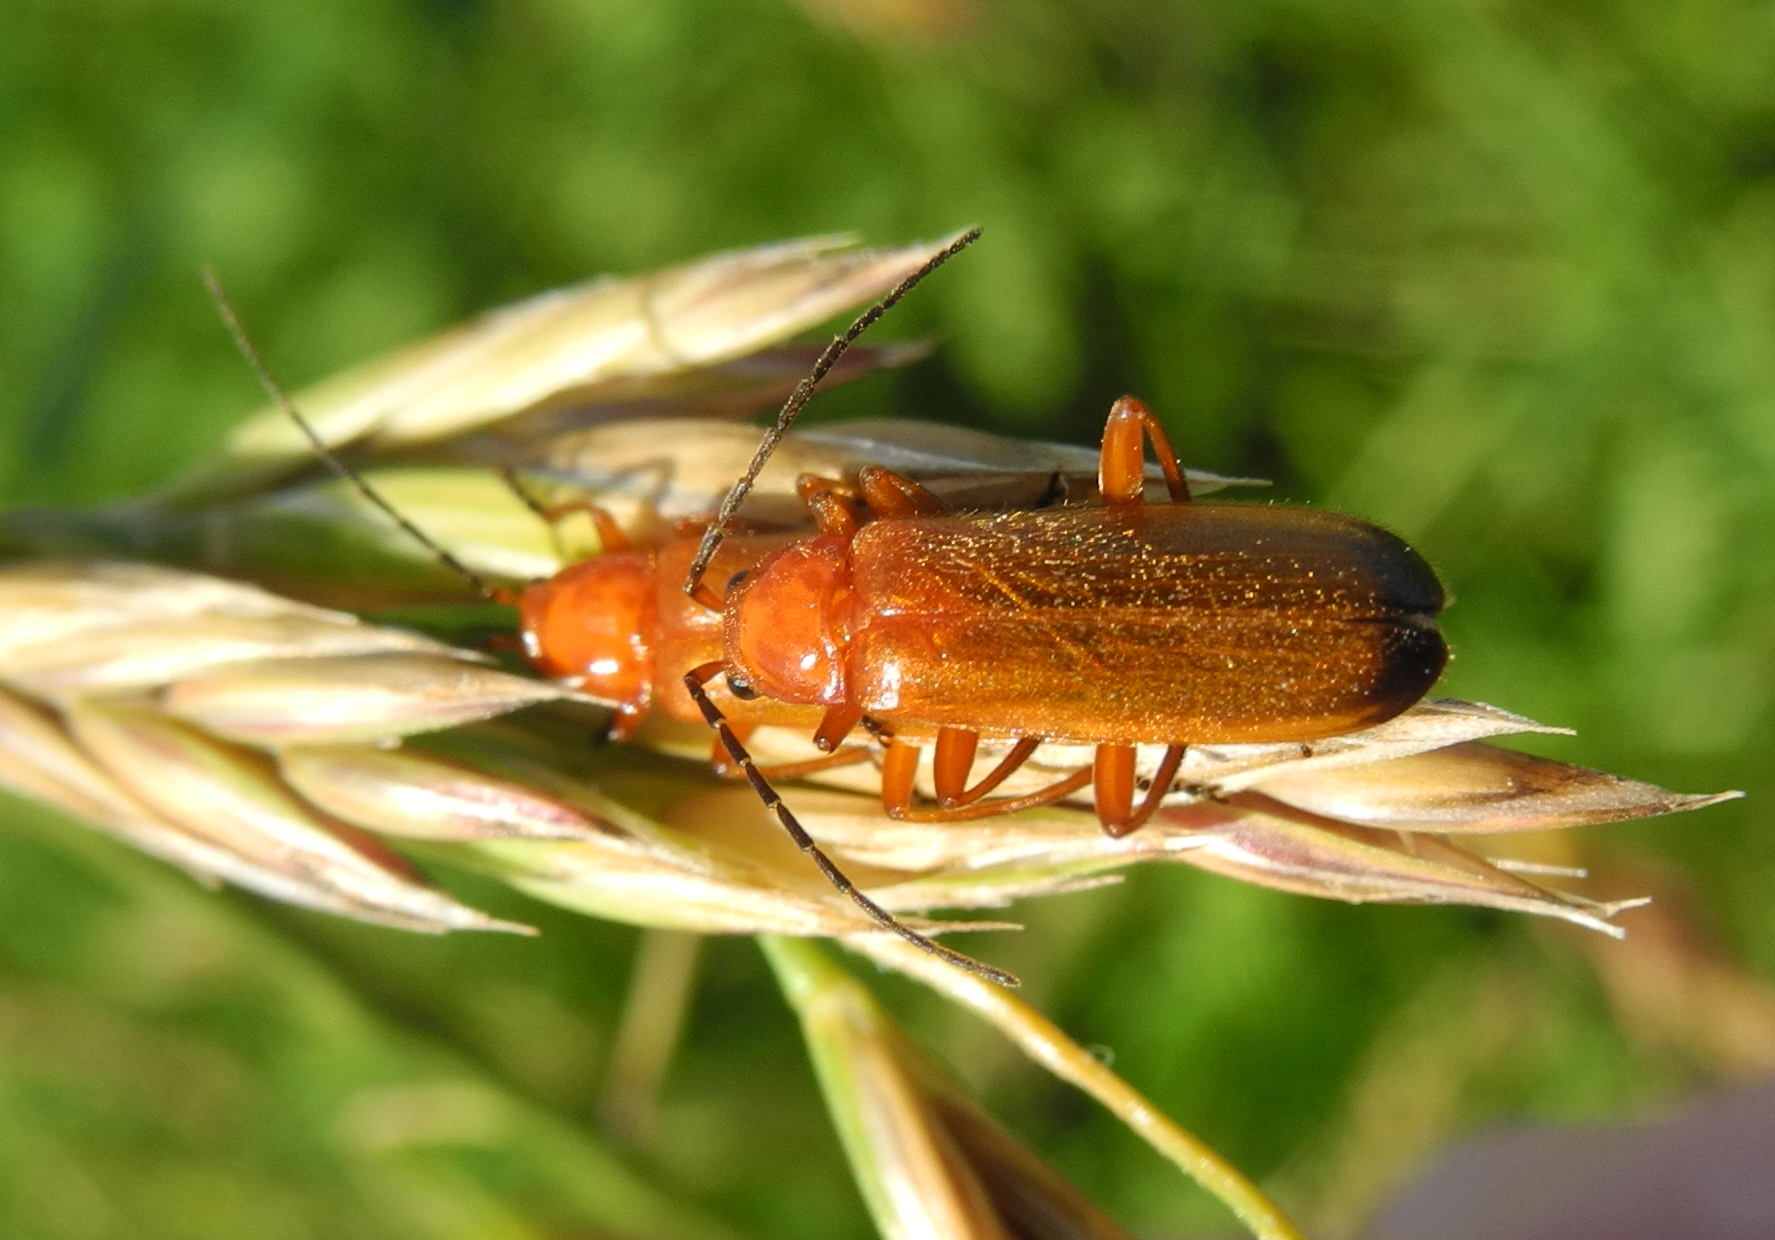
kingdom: Animalia
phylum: Arthropoda
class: Insecta
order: Coleoptera
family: Cantharidae
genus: Rhagonycha
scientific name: Rhagonycha fulva
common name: Common red soldier beetle
